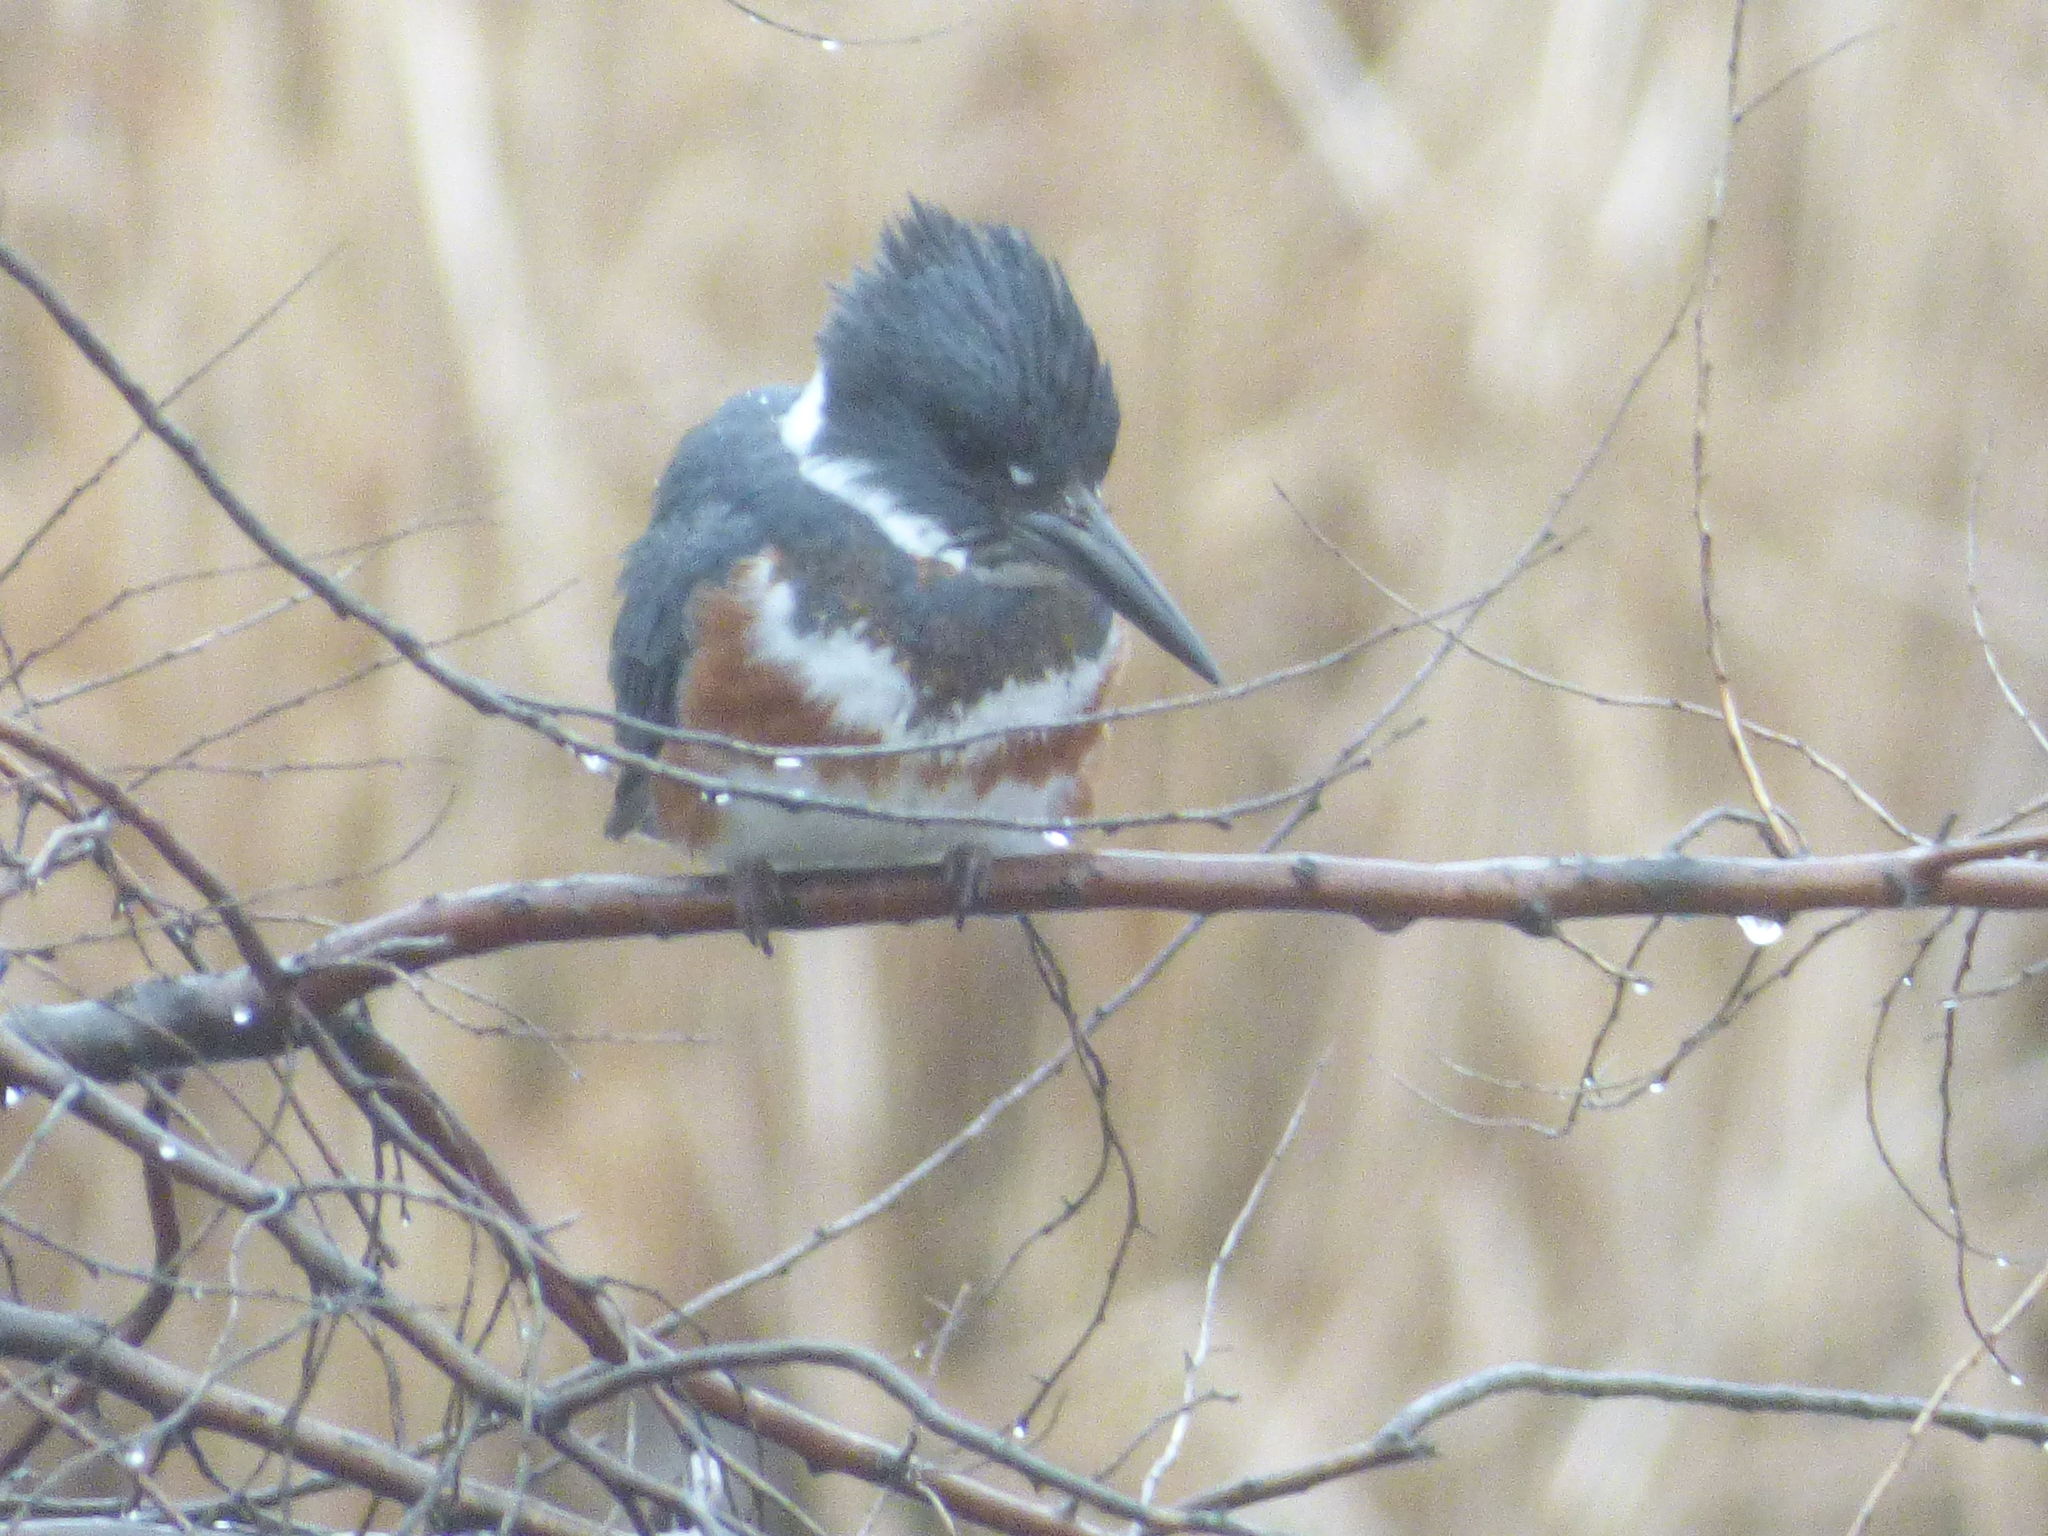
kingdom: Animalia
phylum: Chordata
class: Aves
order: Coraciiformes
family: Alcedinidae
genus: Megaceryle
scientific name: Megaceryle alcyon
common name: Belted kingfisher
